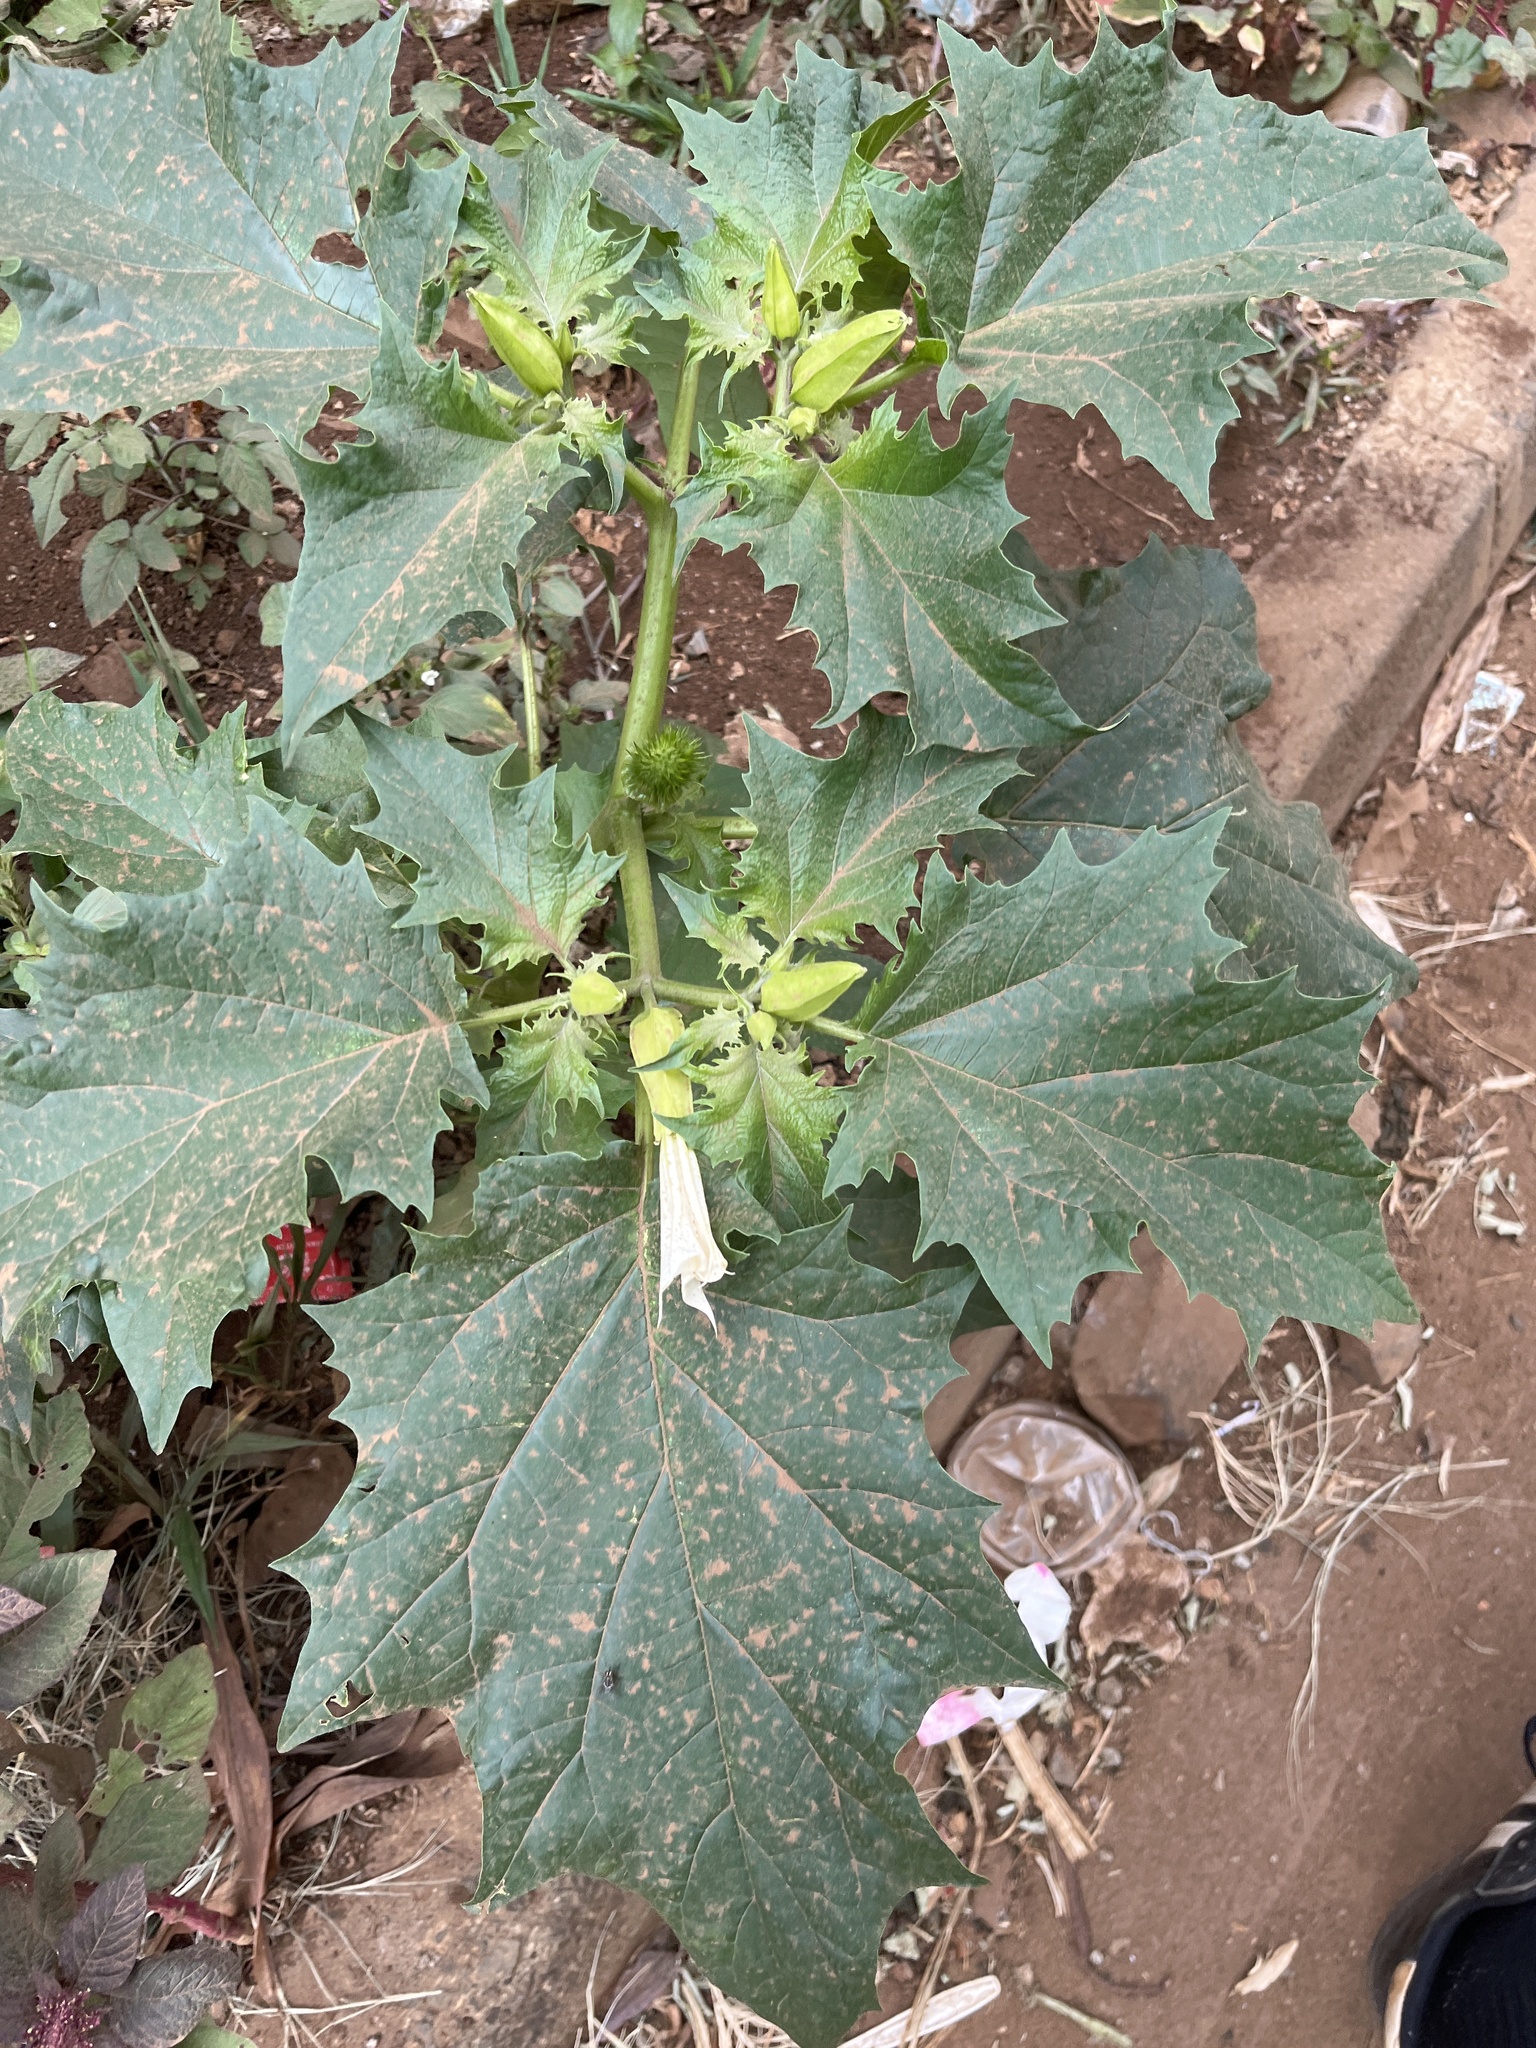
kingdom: Plantae
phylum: Tracheophyta
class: Magnoliopsida
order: Solanales
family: Solanaceae
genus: Datura
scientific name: Datura stramonium
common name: Thorn-apple
